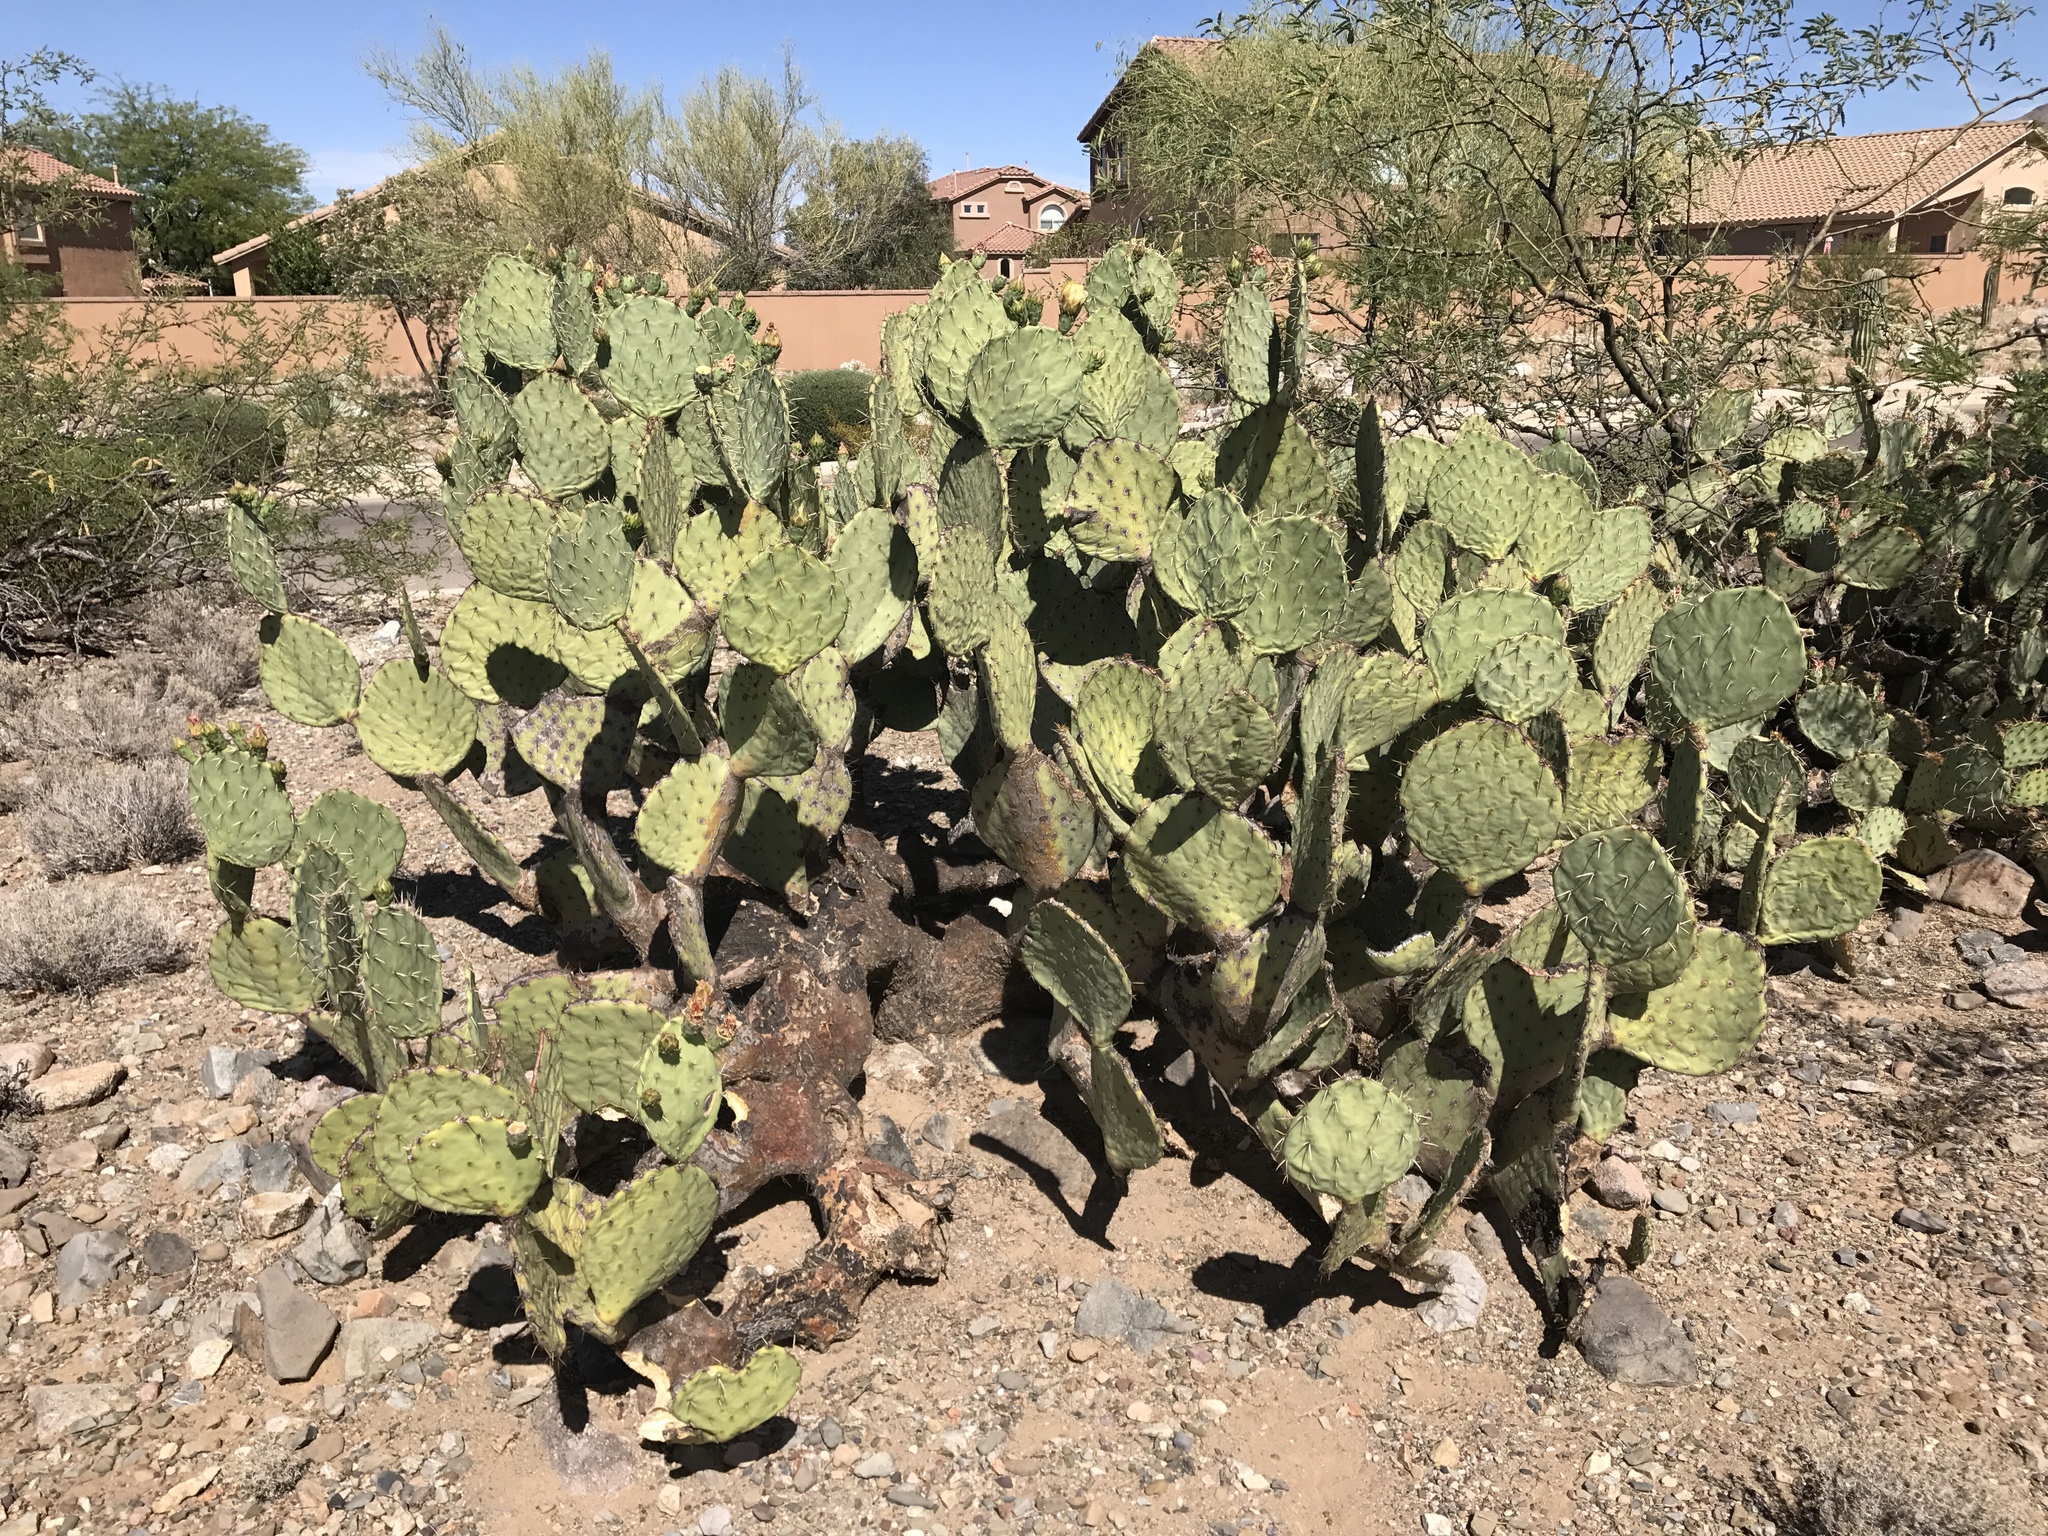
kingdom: Plantae
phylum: Tracheophyta
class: Magnoliopsida
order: Caryophyllales
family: Cactaceae
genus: Opuntia
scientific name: Opuntia engelmannii
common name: Cactus-apple
